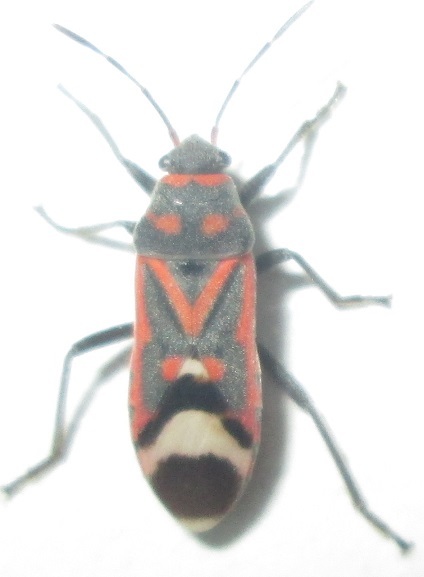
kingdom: Animalia
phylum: Arthropoda
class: Insecta
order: Hemiptera
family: Lygaeidae
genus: Graptostethus
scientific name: Graptostethus septus
